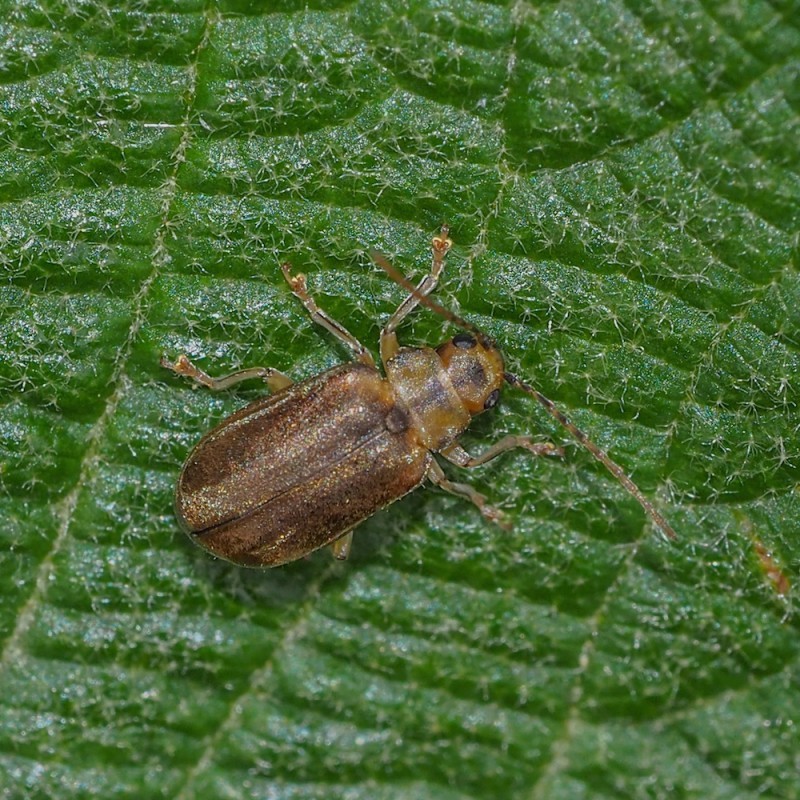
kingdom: Animalia
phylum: Arthropoda
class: Insecta
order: Coleoptera
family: Chrysomelidae
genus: Pyrrhalta
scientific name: Pyrrhalta viburni
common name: Guelder-rose leaf beetle
